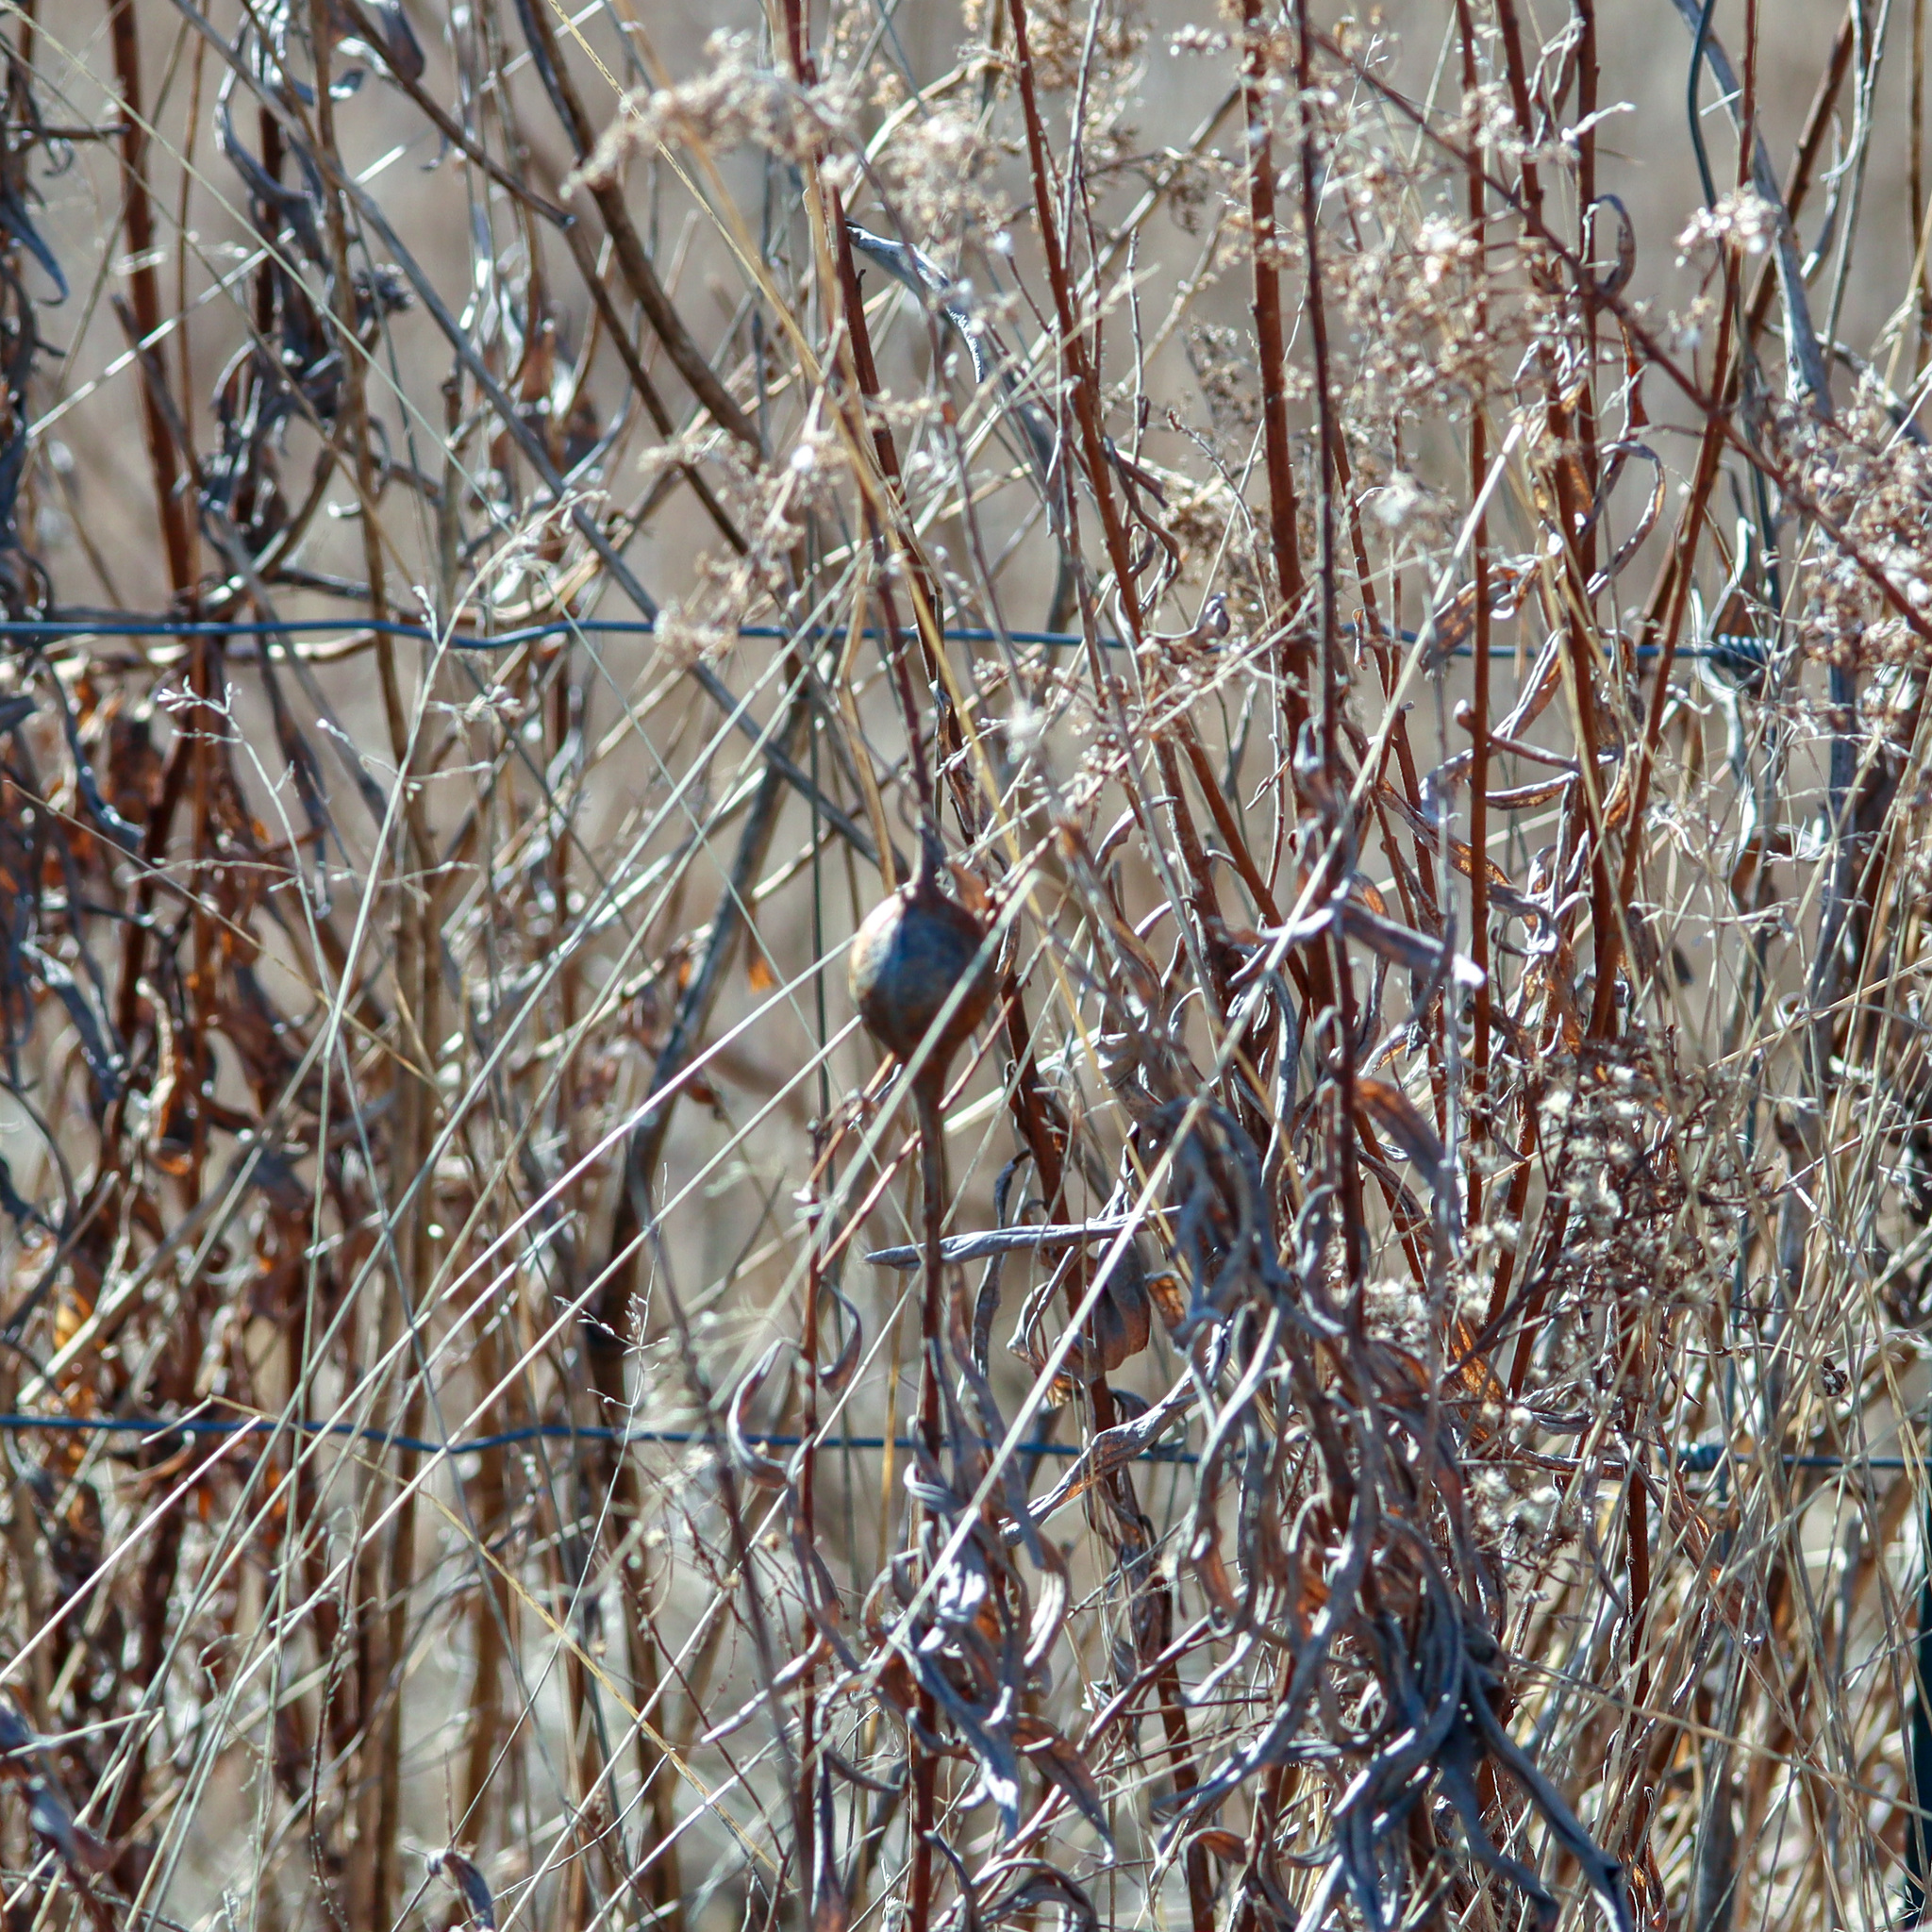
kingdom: Animalia
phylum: Arthropoda
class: Insecta
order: Diptera
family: Tephritidae
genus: Eurosta
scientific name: Eurosta solidaginis
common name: Goldenrod gall fly
